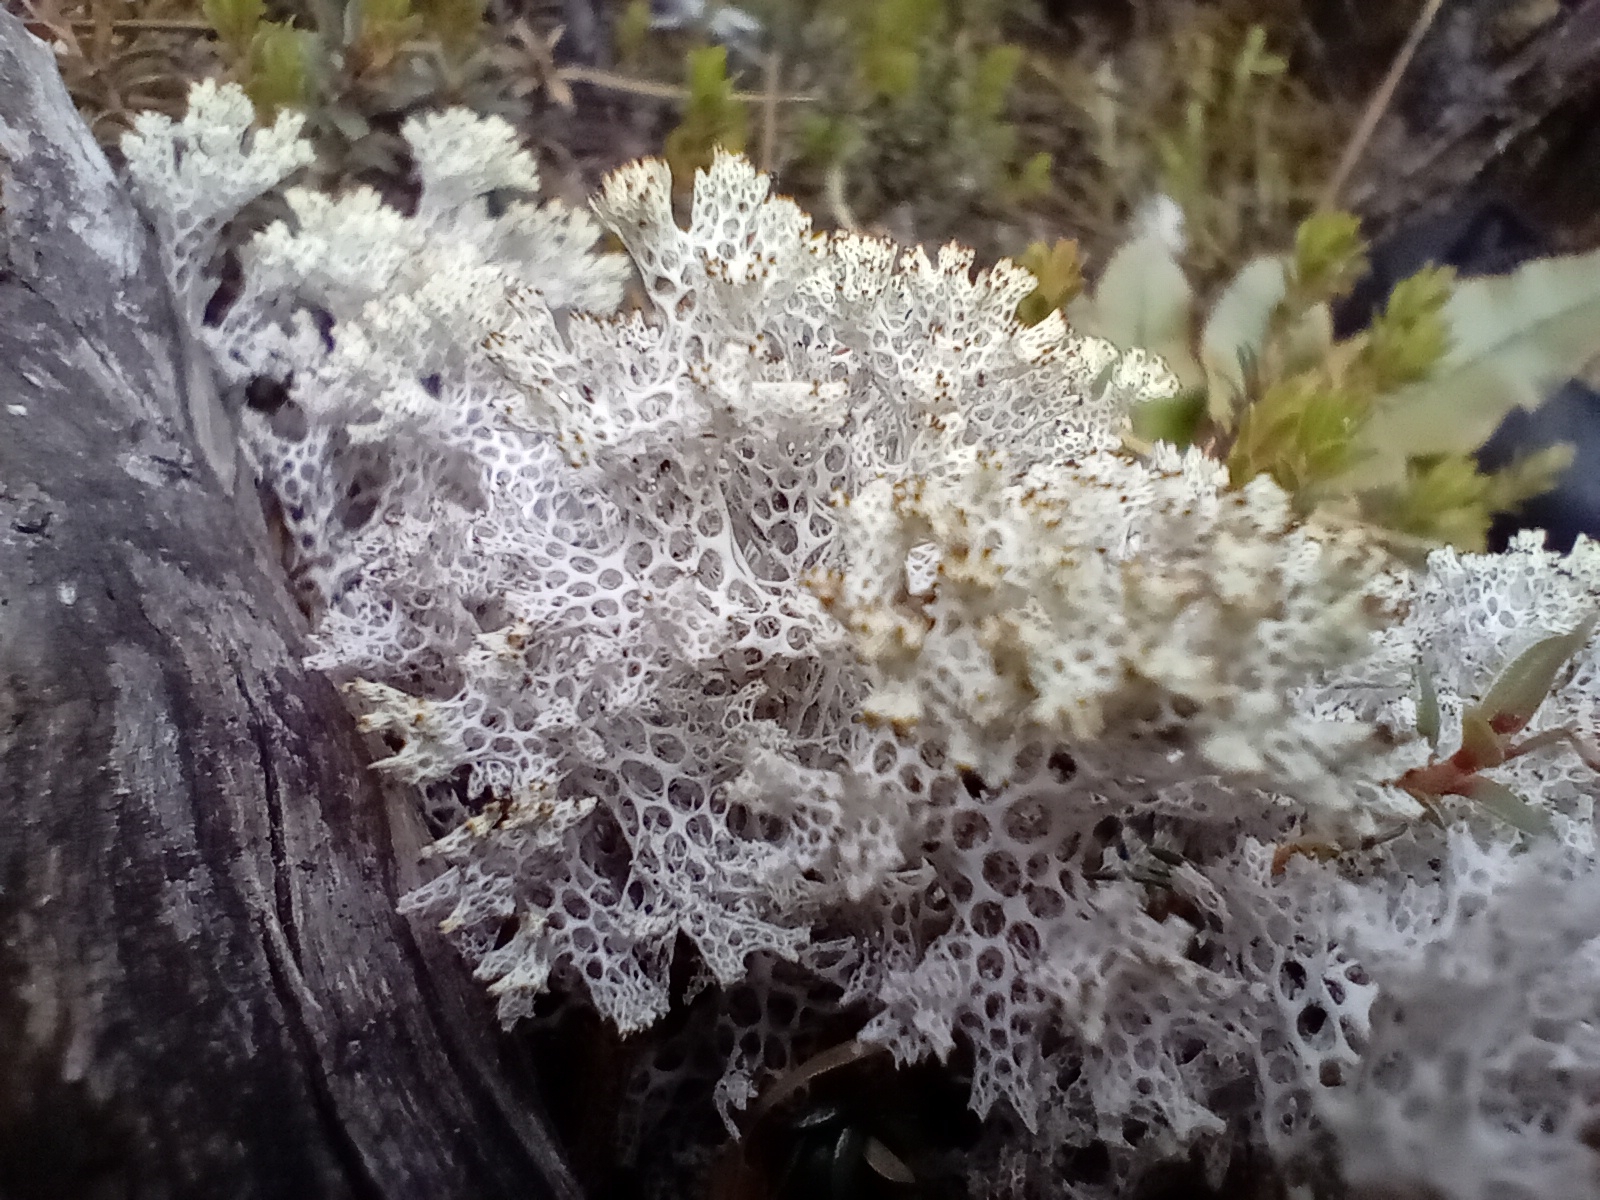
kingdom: Fungi
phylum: Ascomycota
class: Lecanoromycetes
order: Lecanorales
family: Cladoniaceae
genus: Pulchrocladia
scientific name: Pulchrocladia retipora
